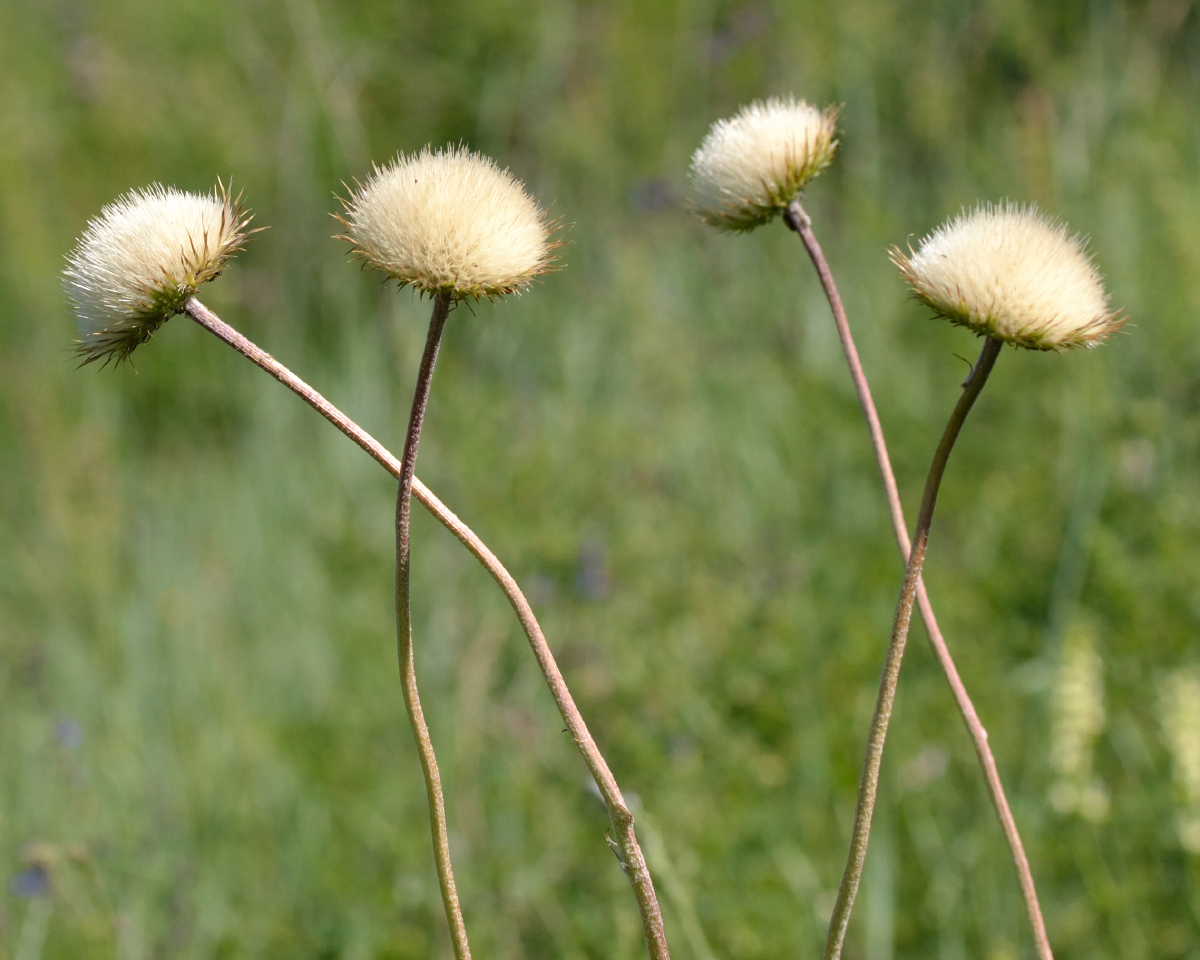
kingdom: Plantae
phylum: Tracheophyta
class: Magnoliopsida
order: Asterales
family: Asteraceae
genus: Jurinea
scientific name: Jurinea ledebourii
